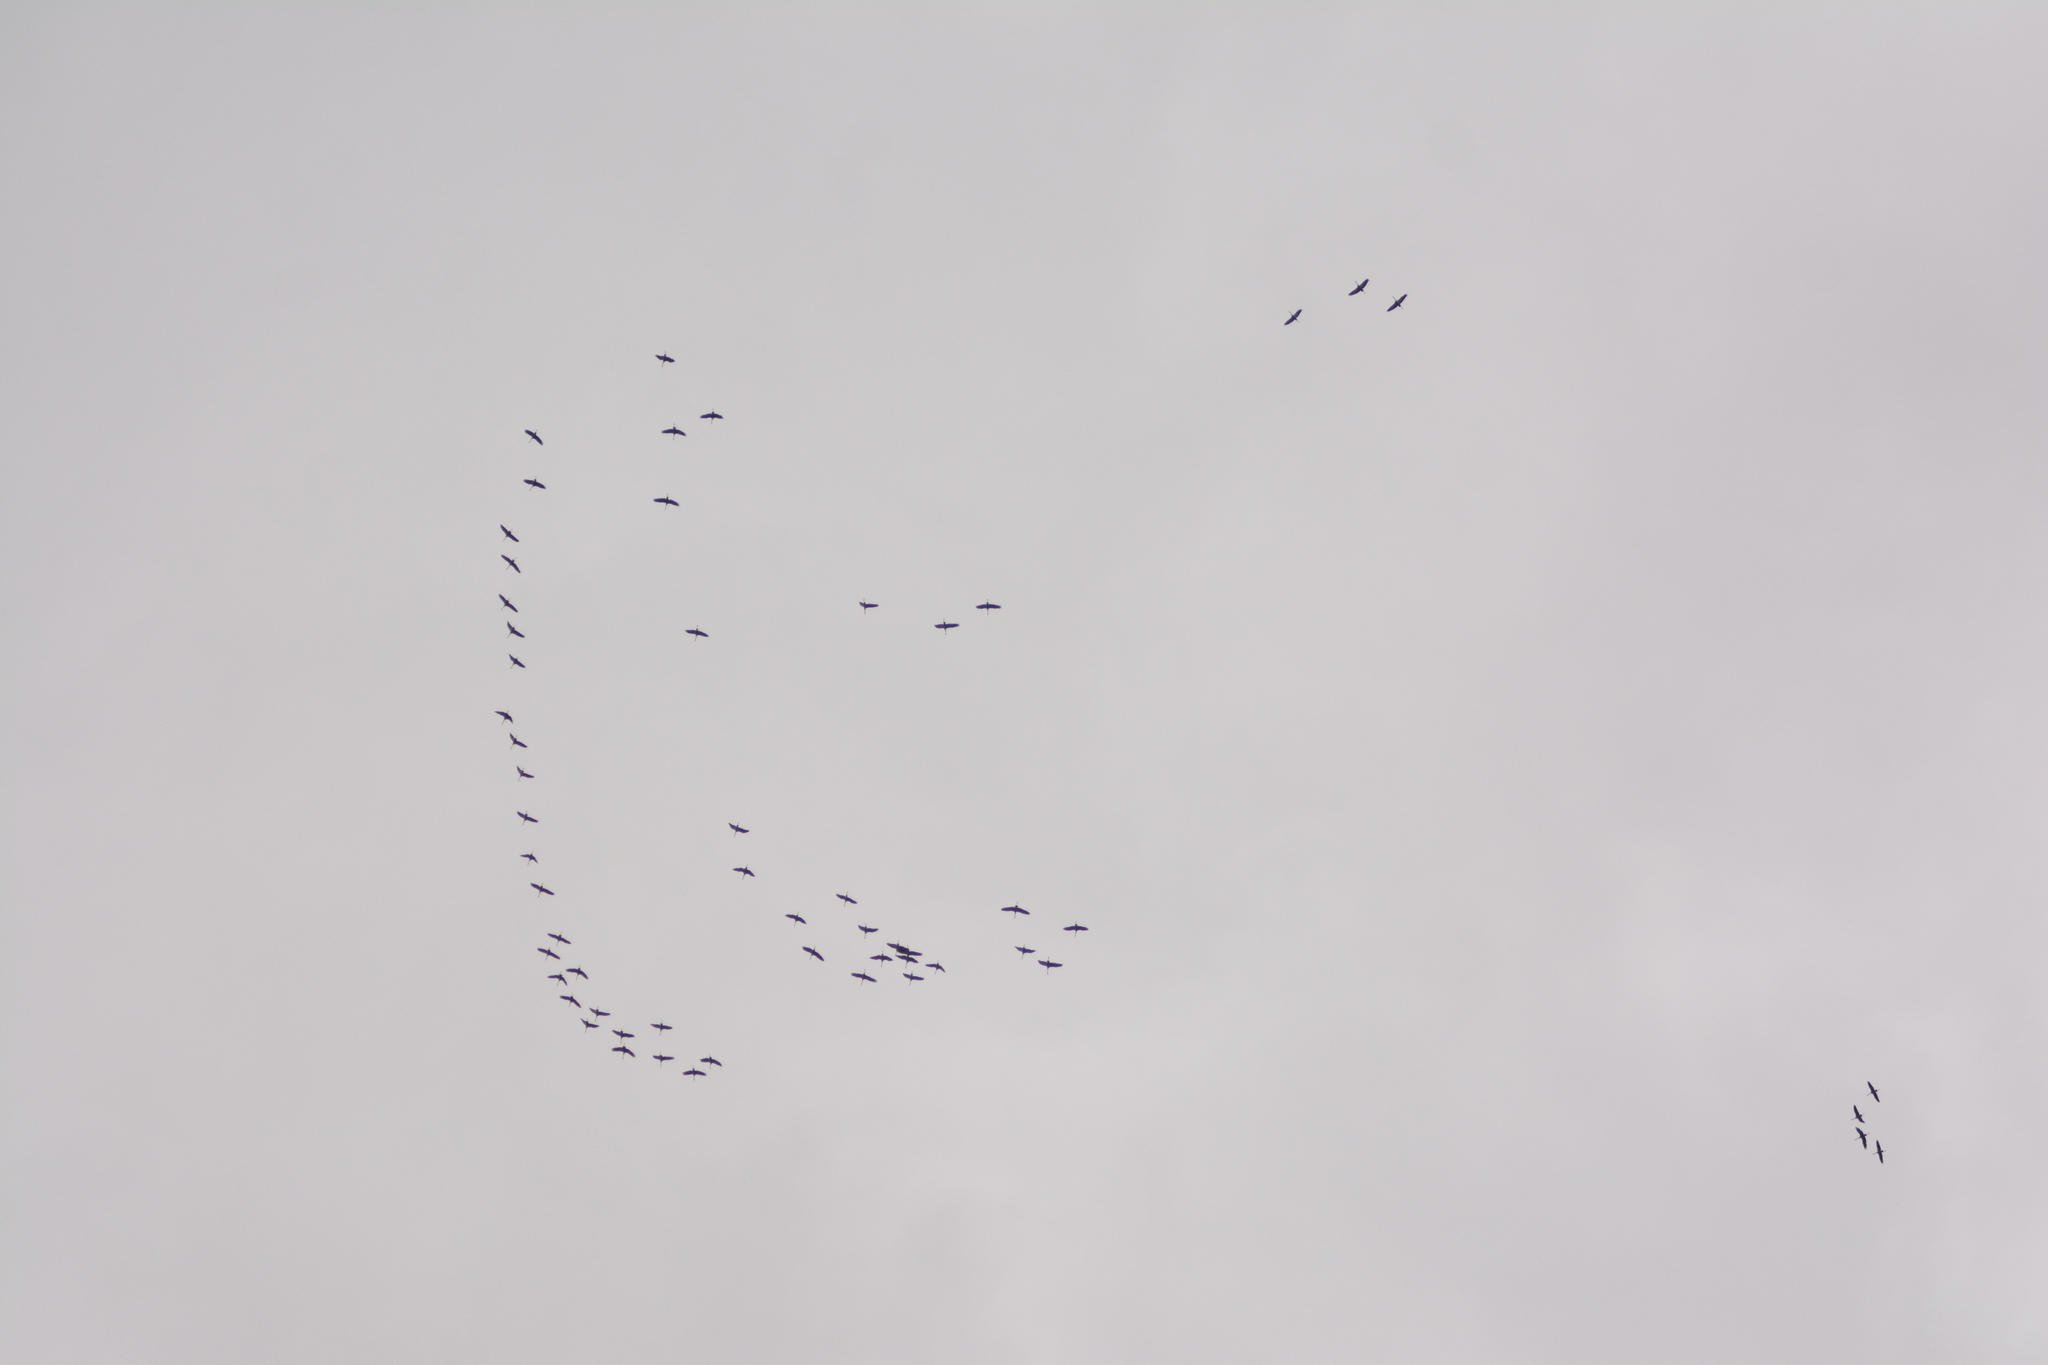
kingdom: Animalia
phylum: Chordata
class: Aves
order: Gruiformes
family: Gruidae
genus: Grus
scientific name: Grus grus
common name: Common crane
